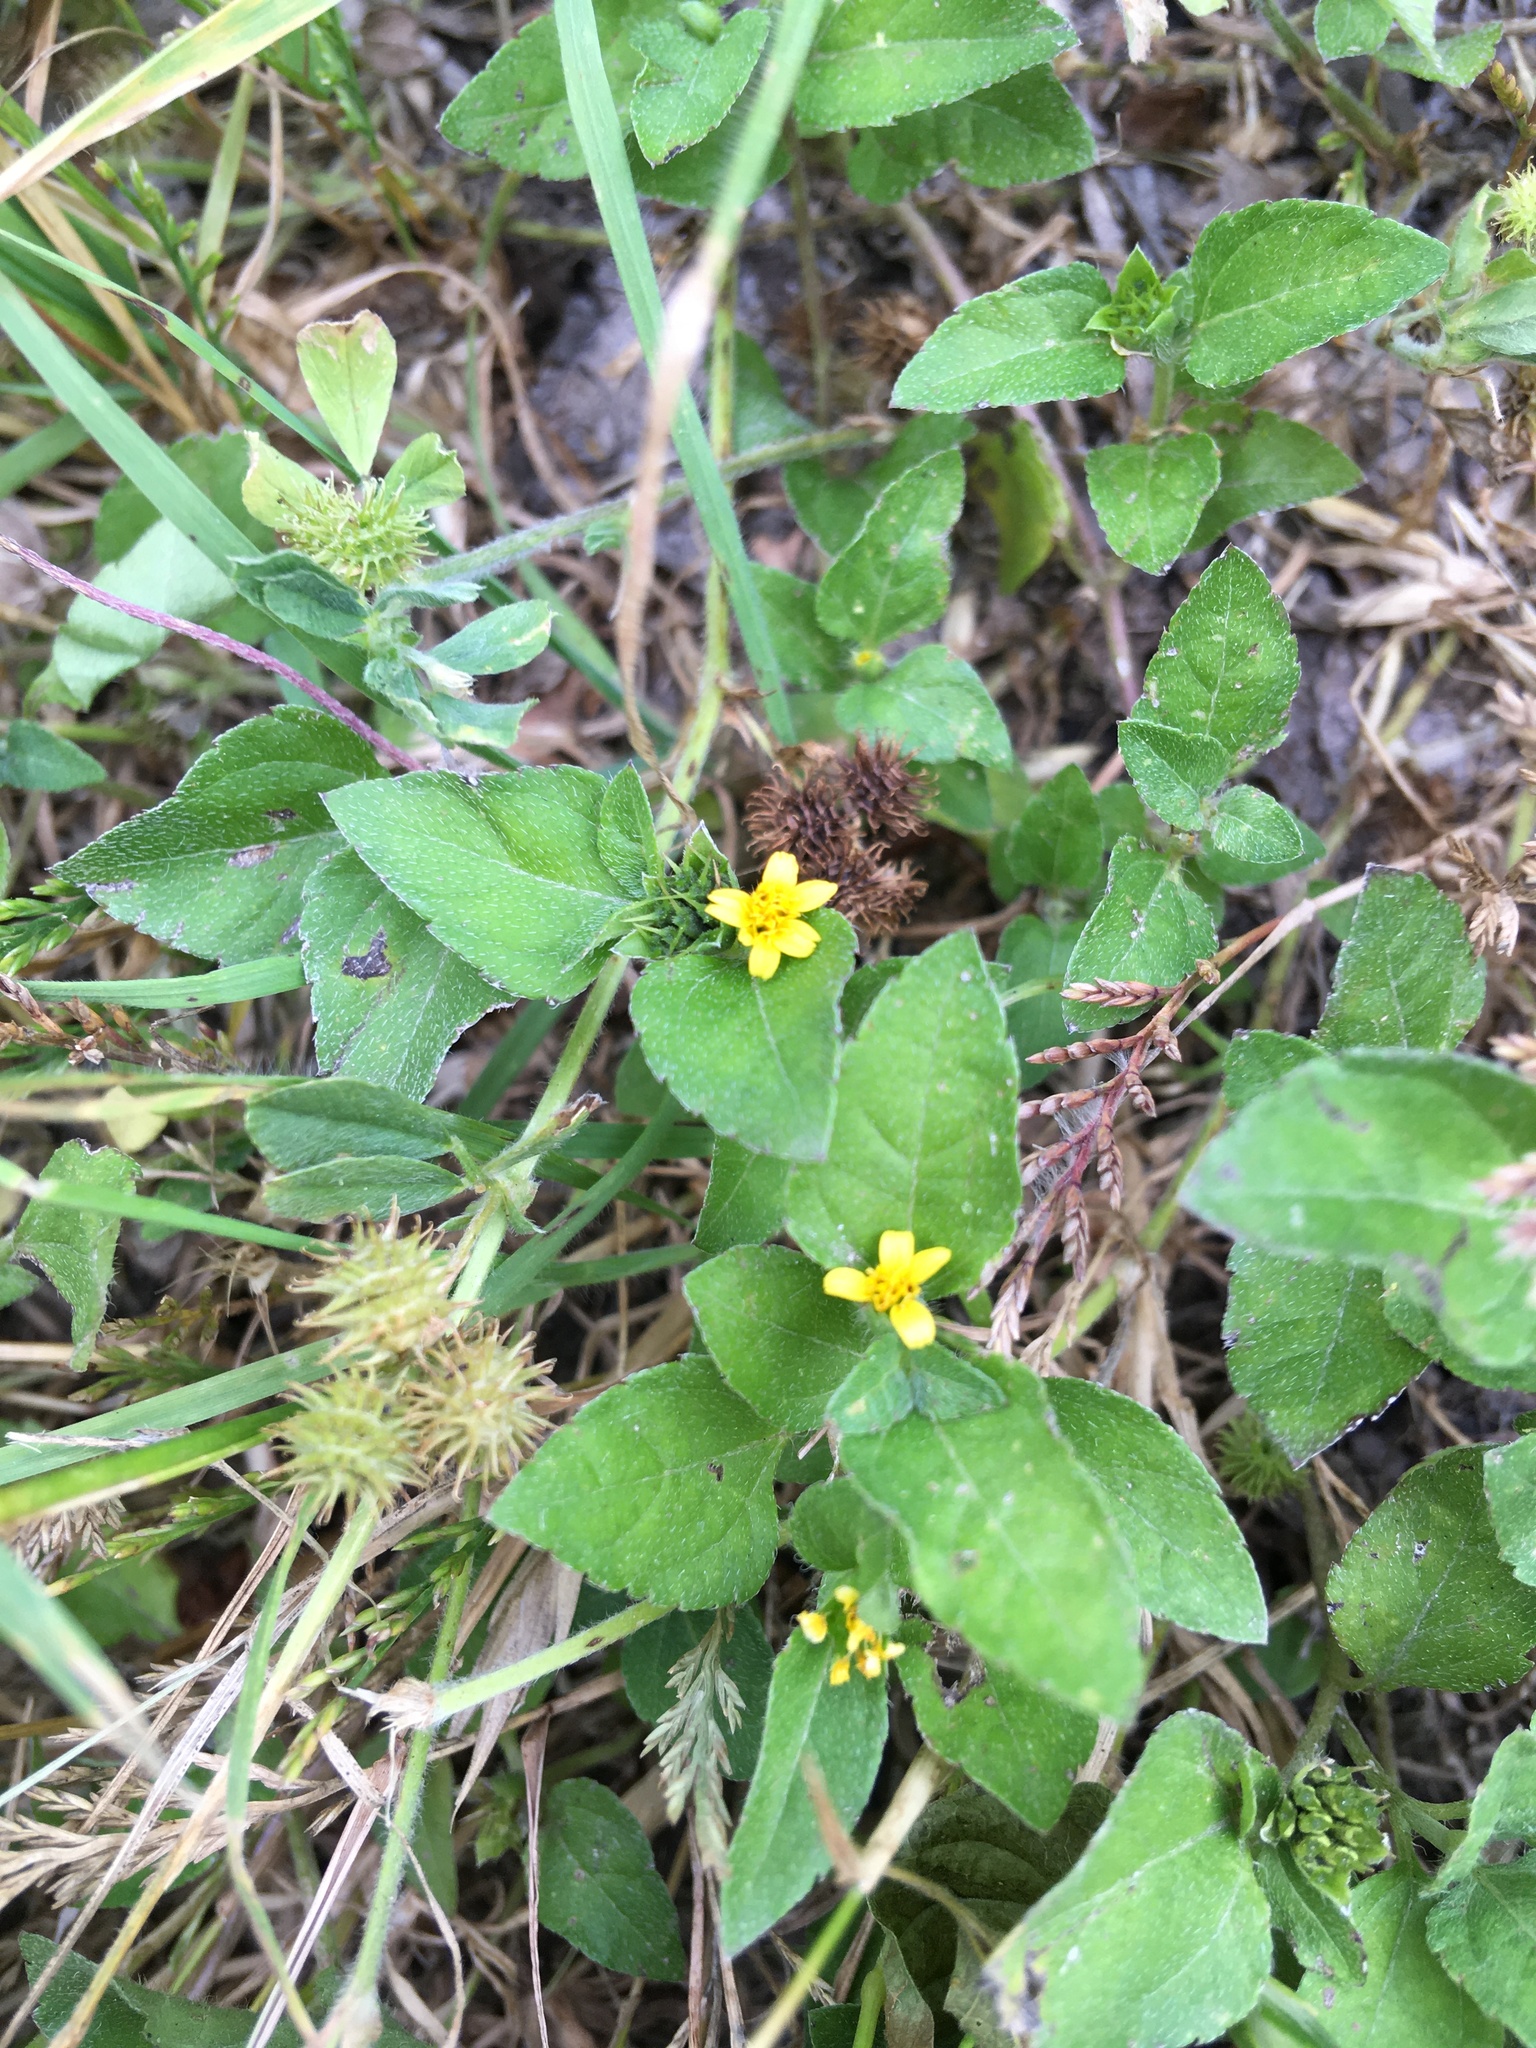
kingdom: Plantae
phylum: Tracheophyta
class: Magnoliopsida
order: Asterales
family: Asteraceae
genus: Calyptocarpus
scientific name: Calyptocarpus vialis
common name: Straggler daisy
